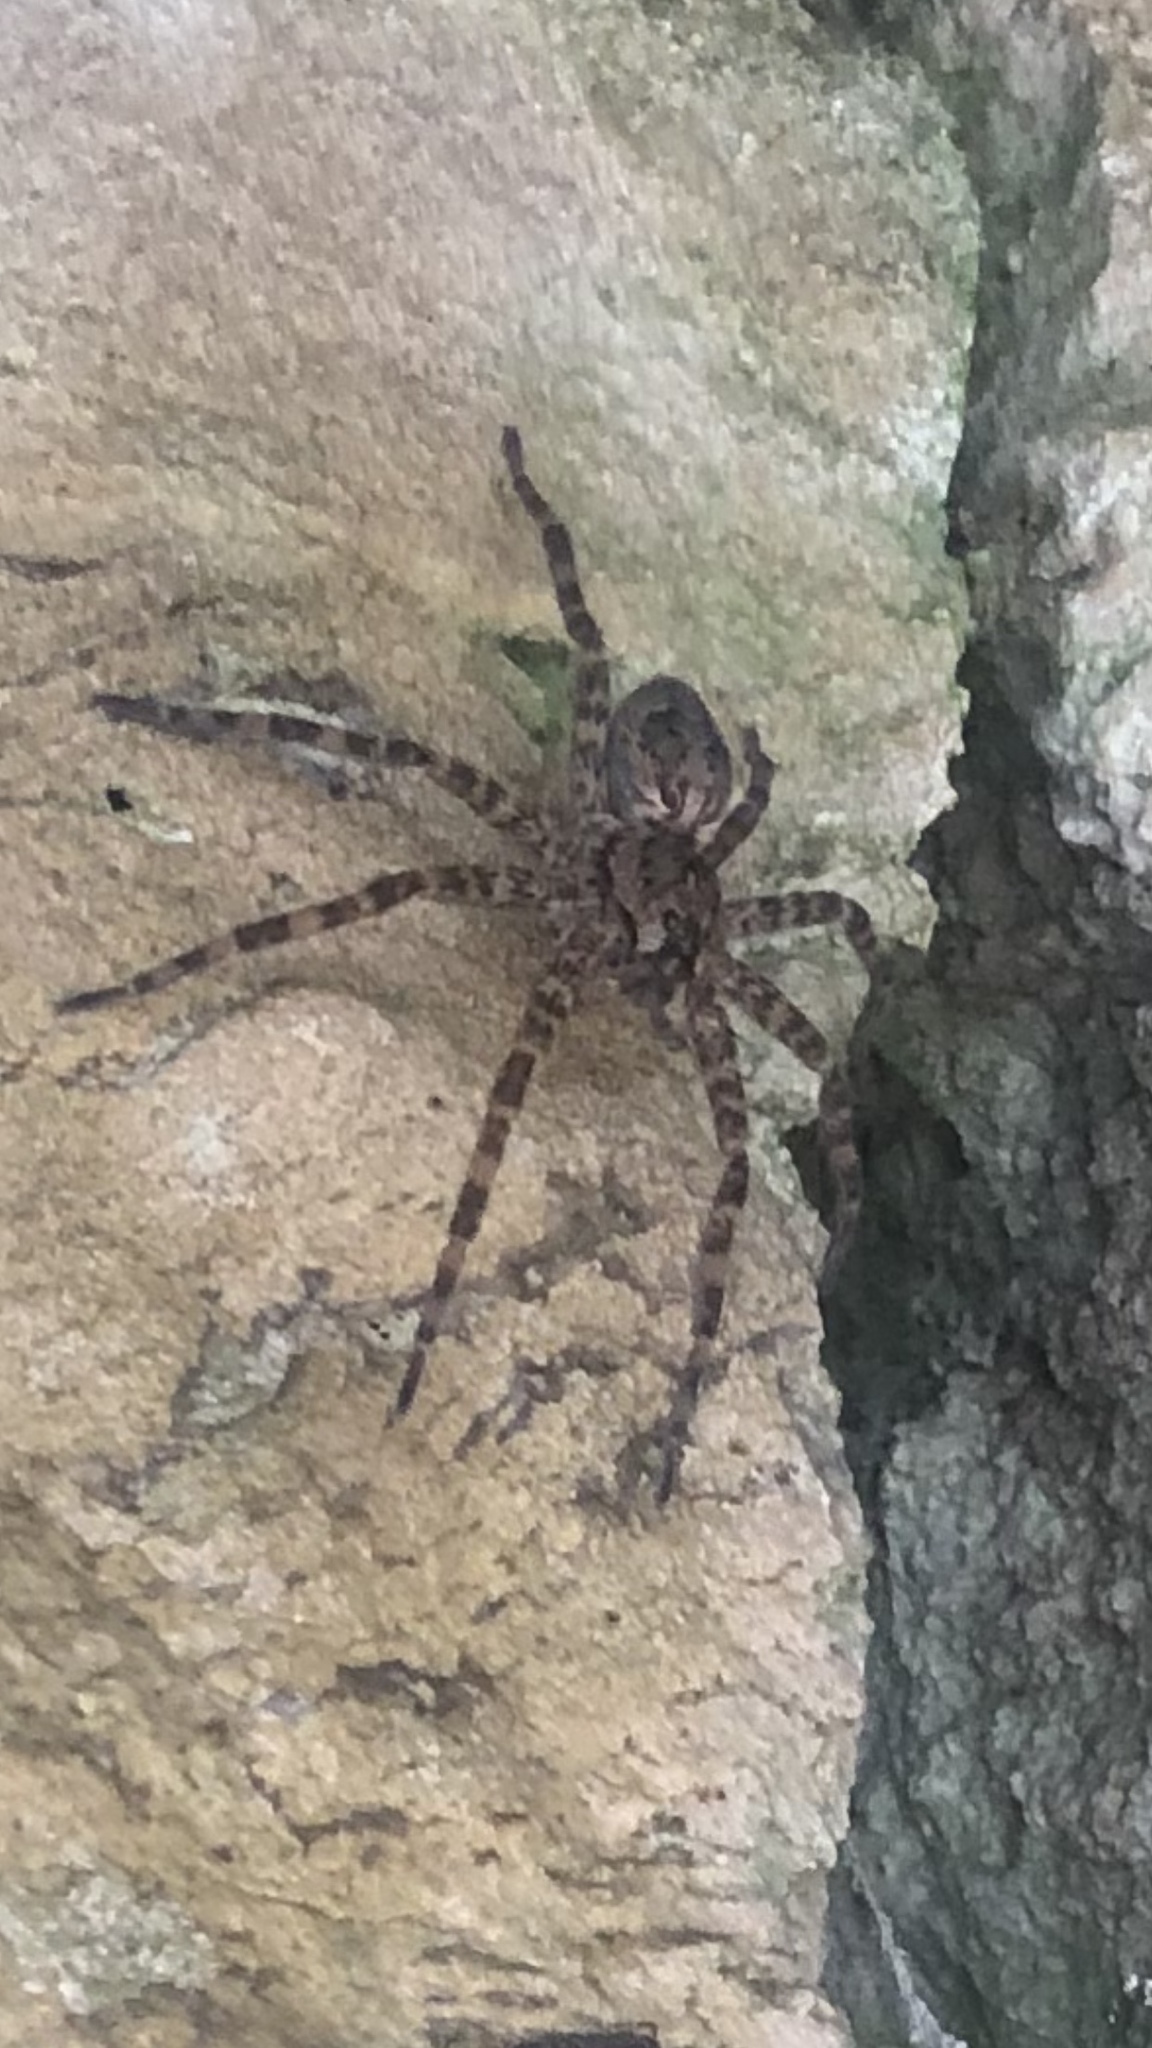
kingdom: Animalia
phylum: Arthropoda
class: Arachnida
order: Araneae
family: Pisauridae
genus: Dolomedes
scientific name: Dolomedes tenebrosus
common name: Dark fishing spider
